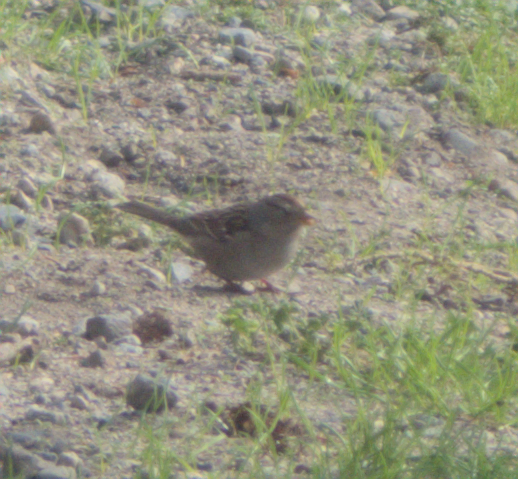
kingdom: Animalia
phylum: Chordata
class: Aves
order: Passeriformes
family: Passerellidae
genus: Zonotrichia
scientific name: Zonotrichia leucophrys
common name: White-crowned sparrow
